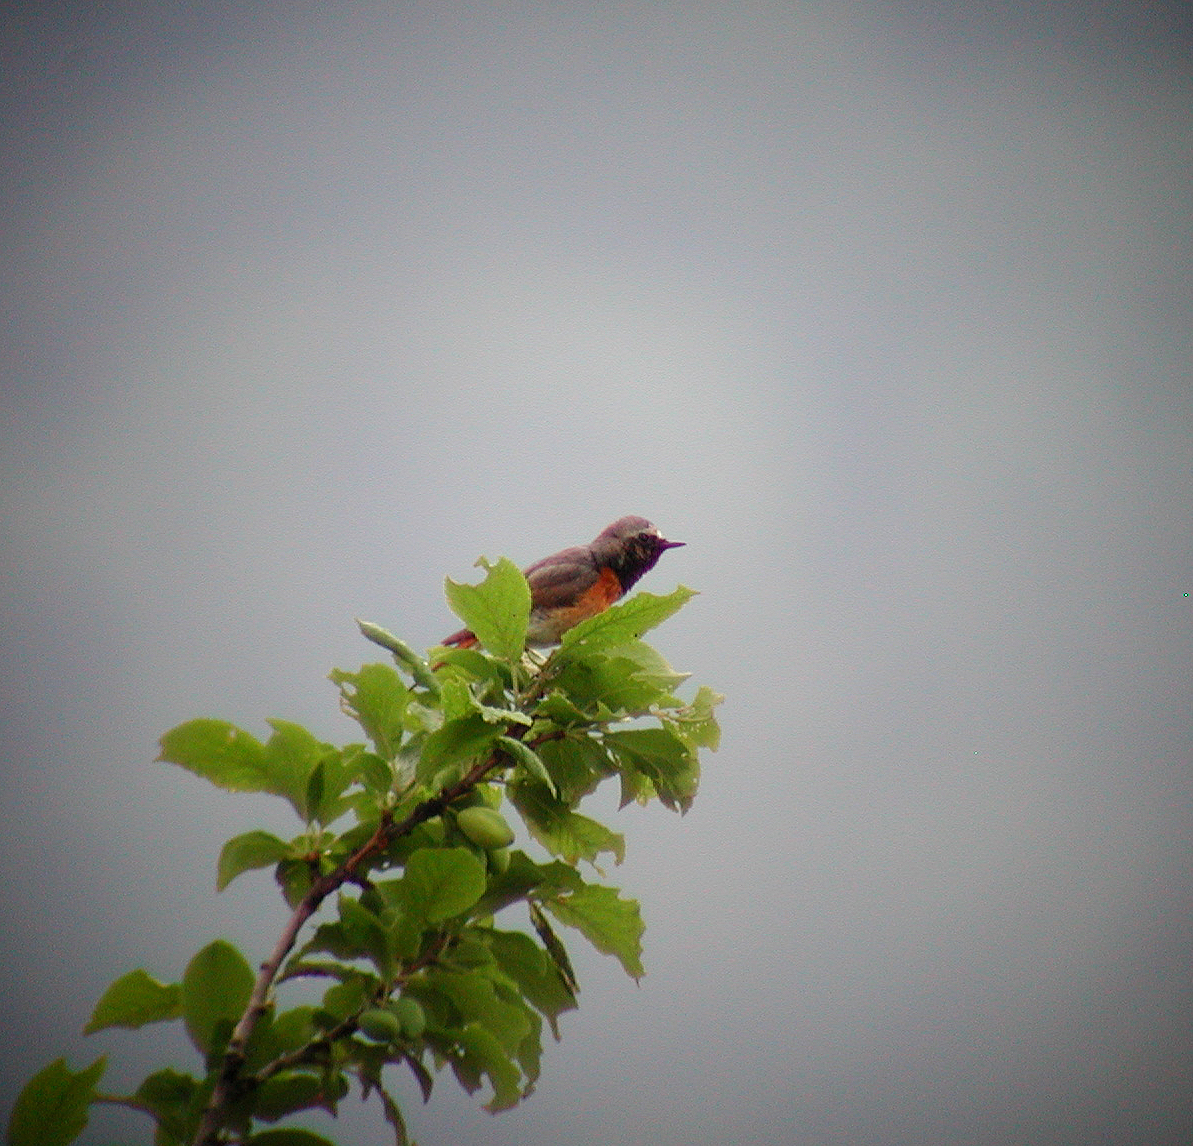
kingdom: Animalia
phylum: Chordata
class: Aves
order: Passeriformes
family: Muscicapidae
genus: Phoenicurus
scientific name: Phoenicurus phoenicurus
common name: Common redstart
